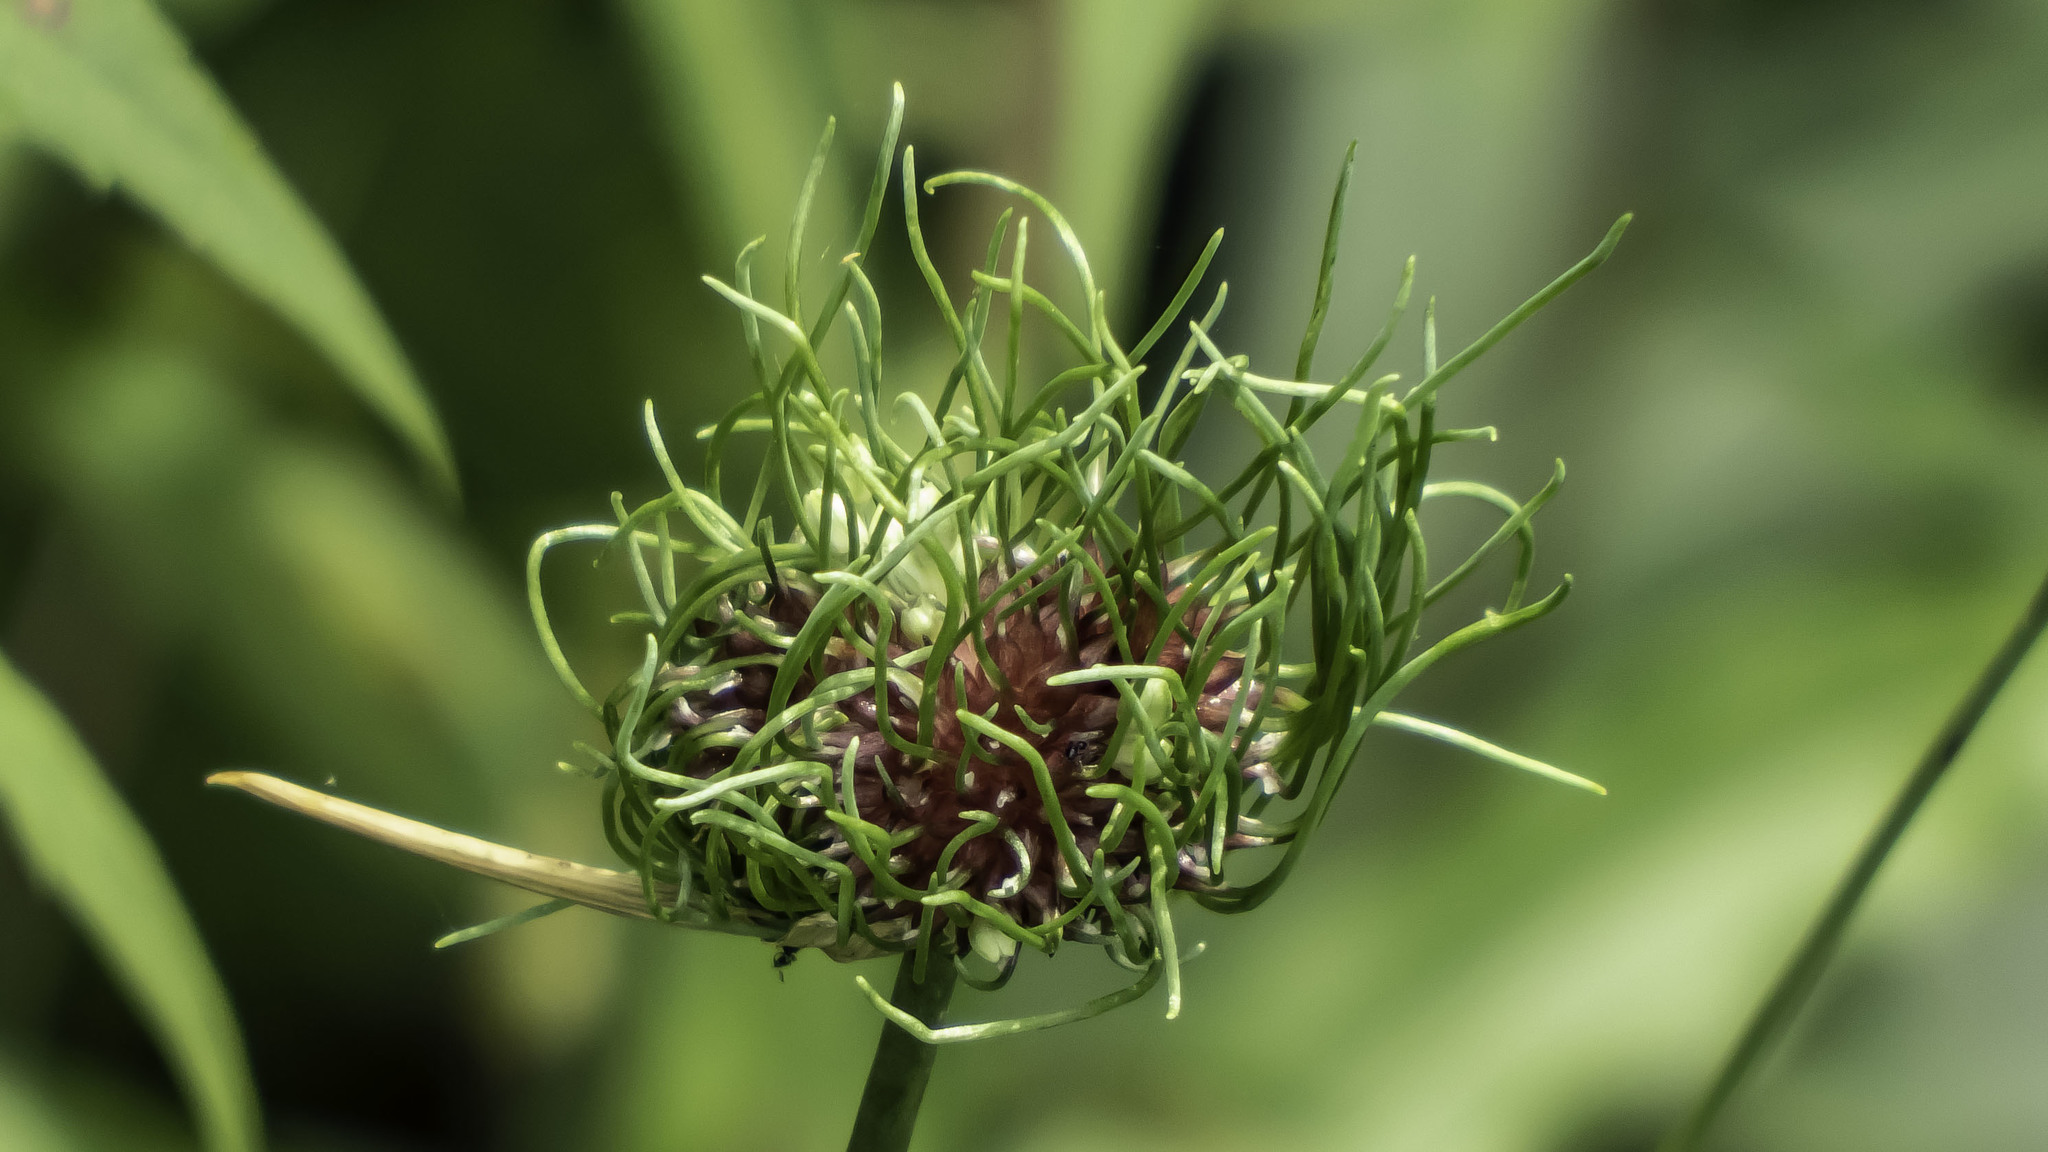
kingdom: Plantae
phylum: Tracheophyta
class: Liliopsida
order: Asparagales
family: Amaryllidaceae
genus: Allium
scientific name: Allium vineale
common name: Crow garlic
